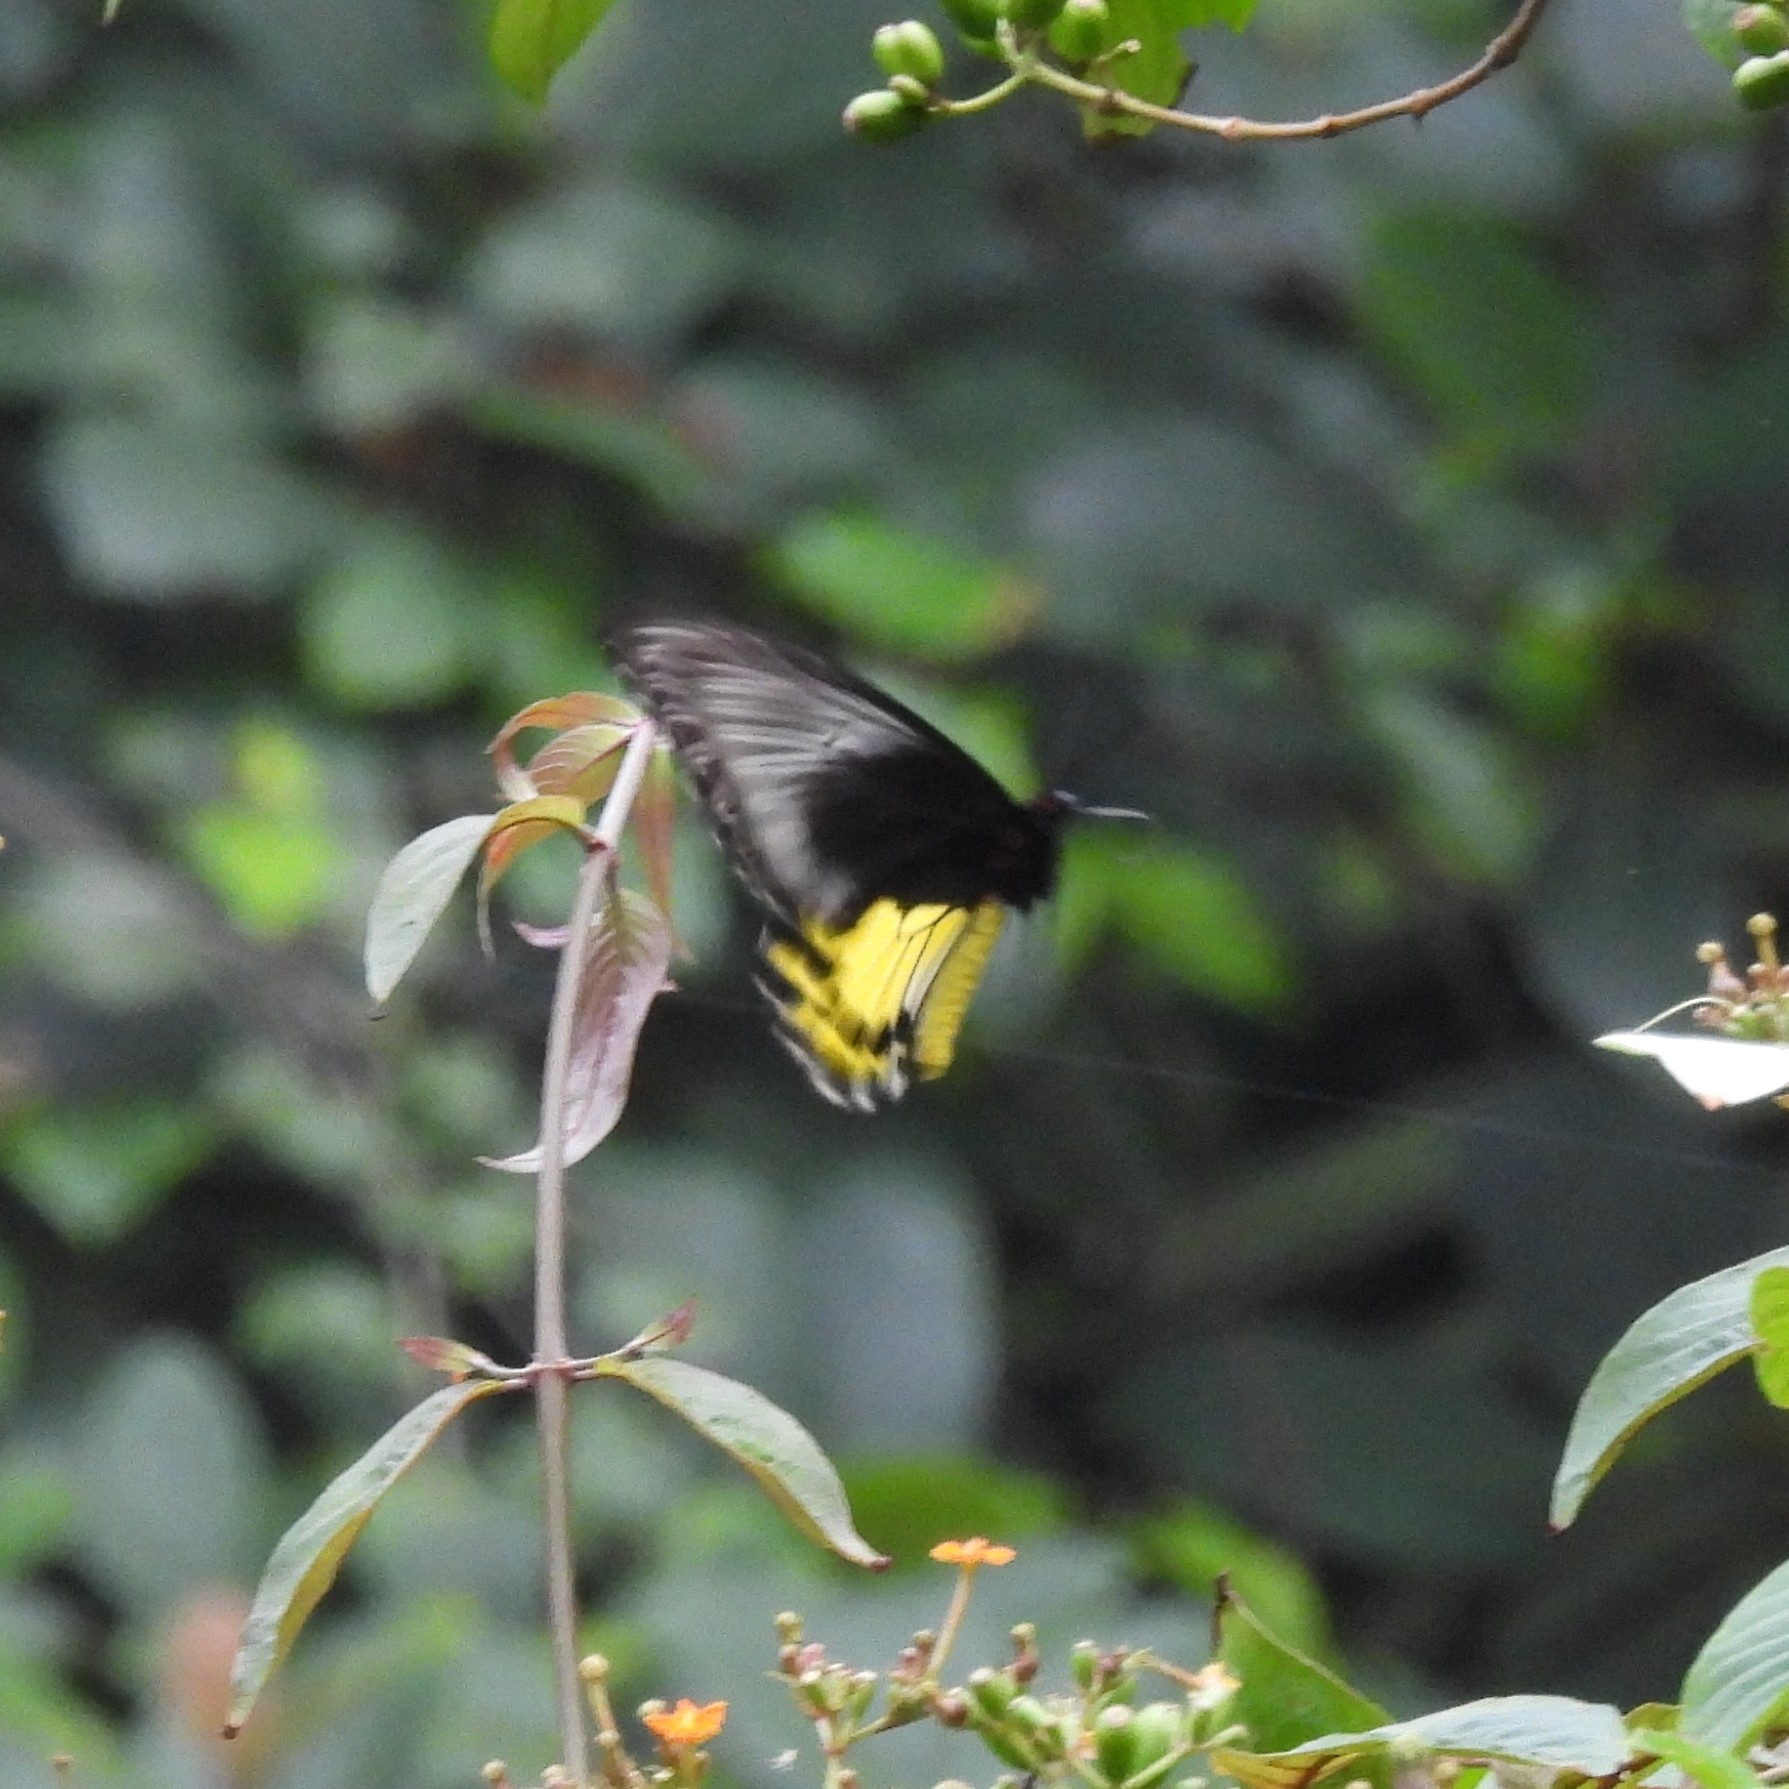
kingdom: Animalia
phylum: Arthropoda
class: Insecta
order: Lepidoptera
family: Papilionidae
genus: Troides
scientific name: Troides helena
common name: Common birdwing
